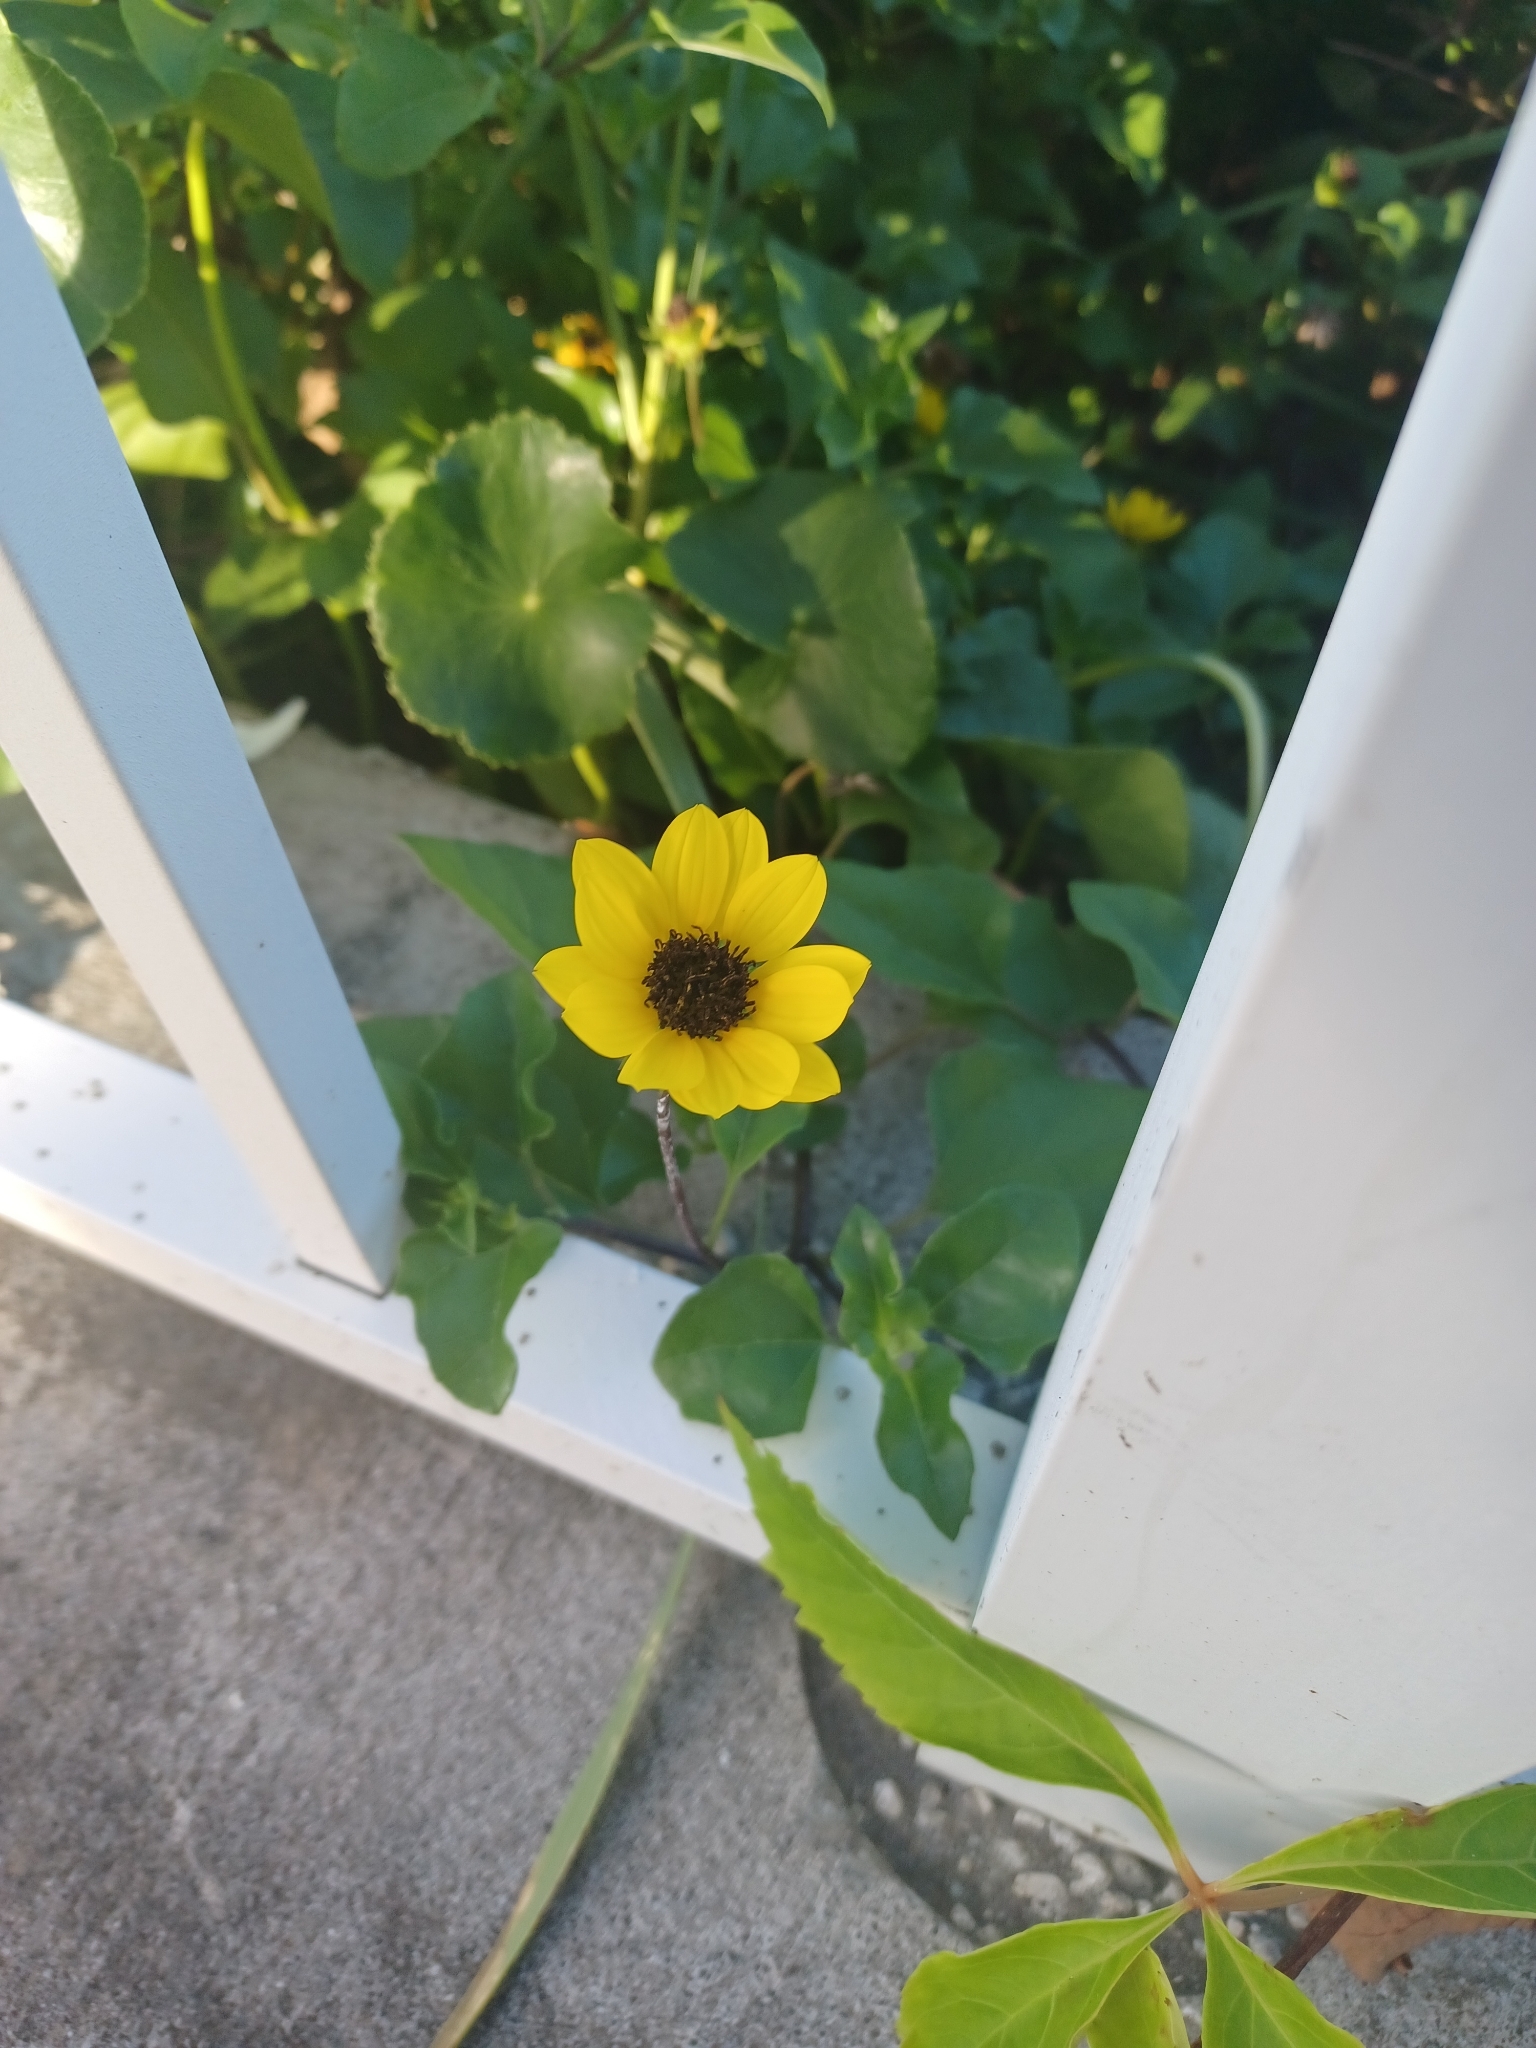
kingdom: Plantae
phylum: Tracheophyta
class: Magnoliopsida
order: Asterales
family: Asteraceae
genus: Helianthus
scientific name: Helianthus debilis
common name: Weak sunflower
